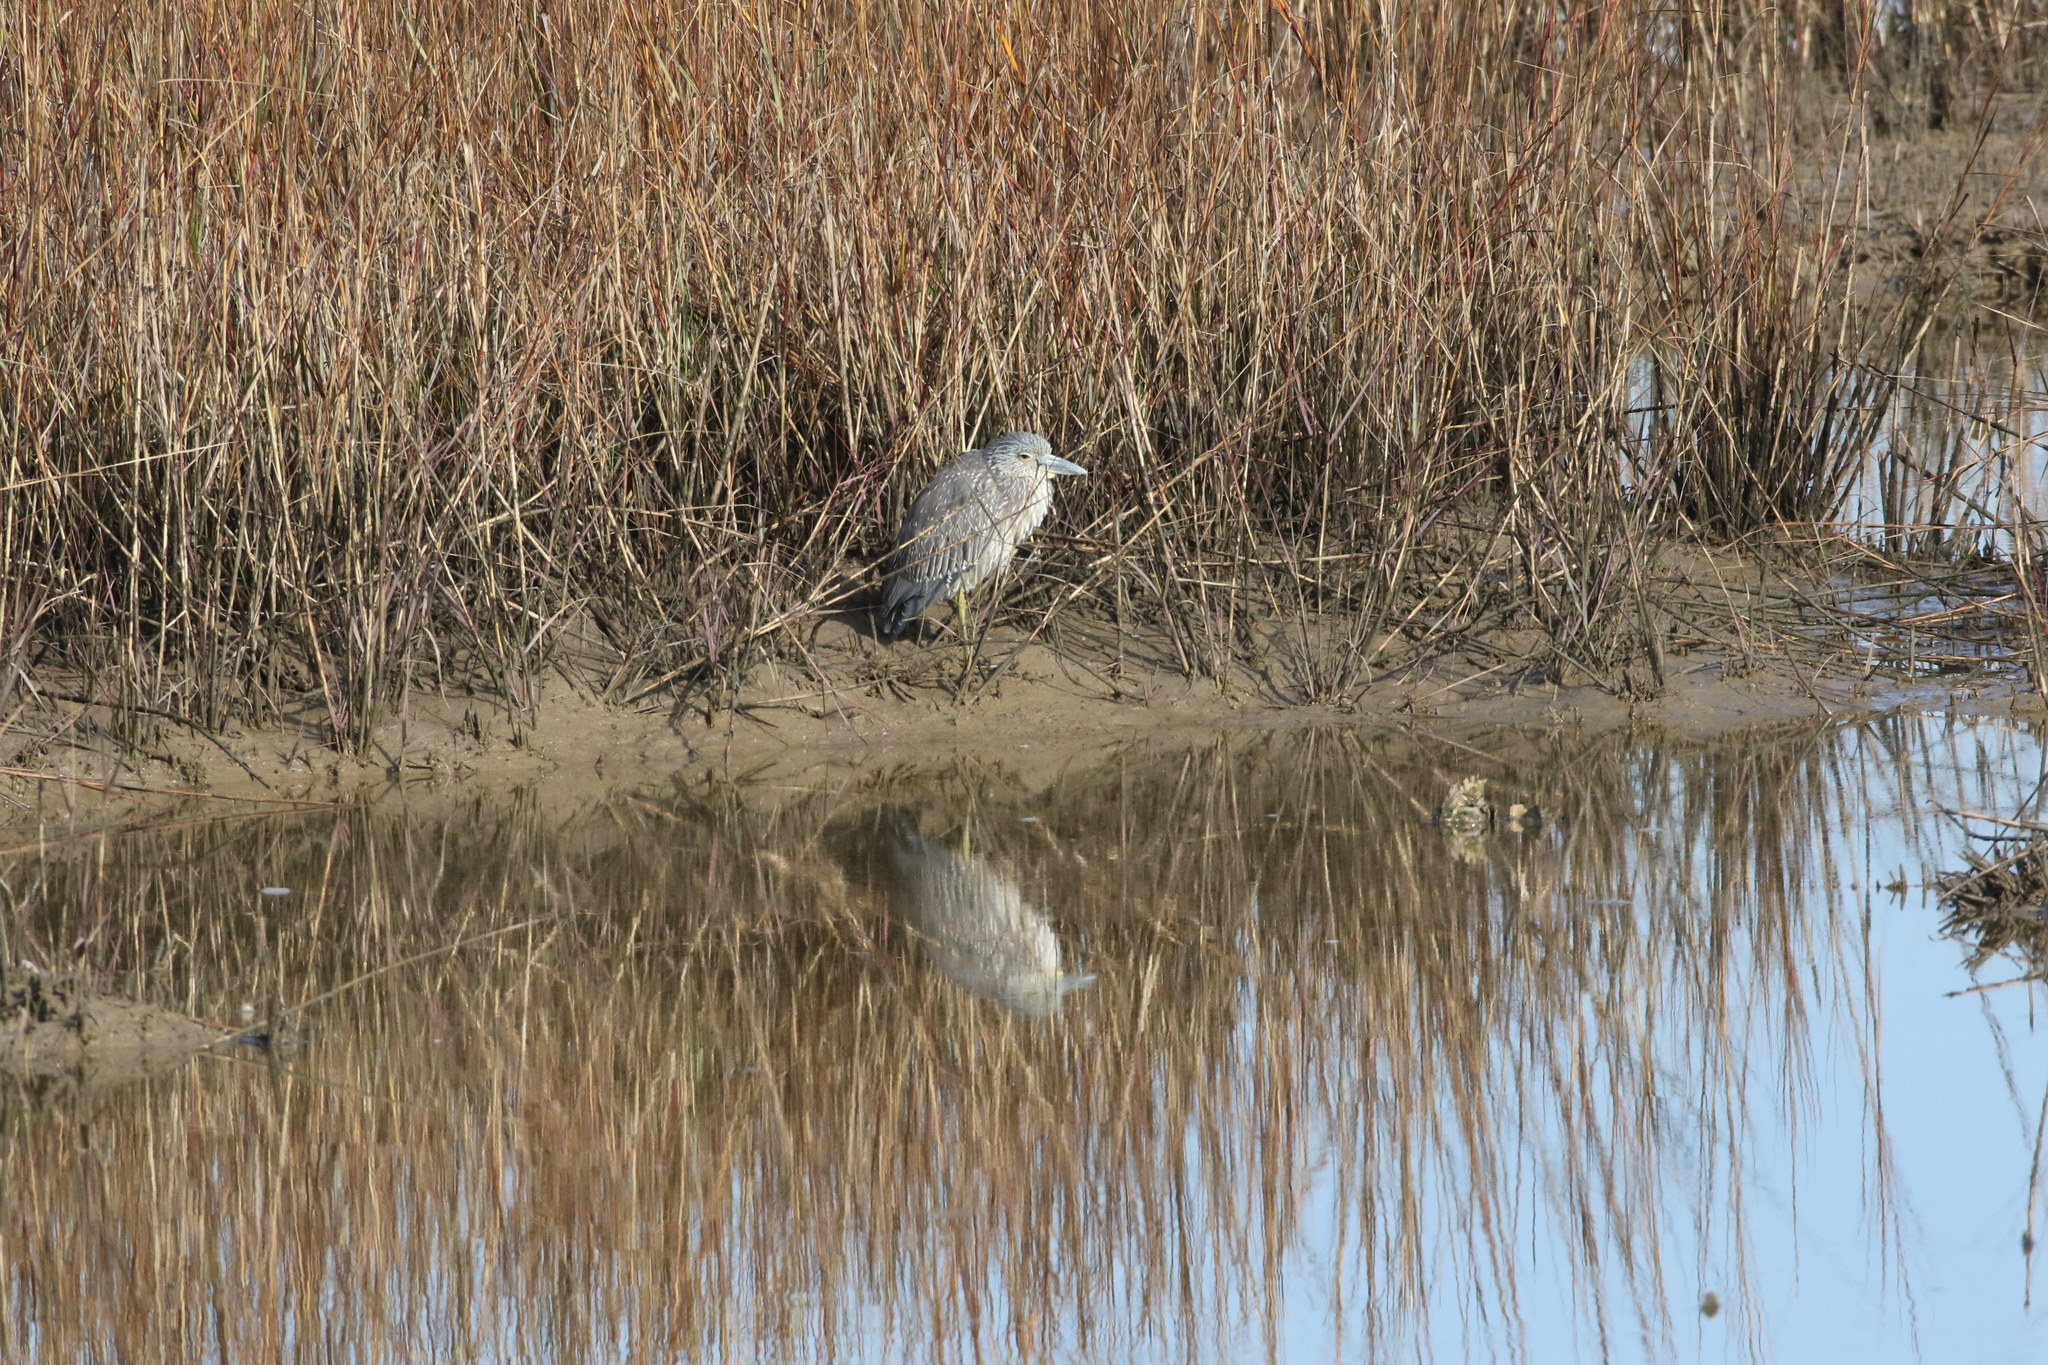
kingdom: Animalia
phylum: Chordata
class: Aves
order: Pelecaniformes
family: Ardeidae
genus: Nyctanassa
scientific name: Nyctanassa violacea
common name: Yellow-crowned night heron
